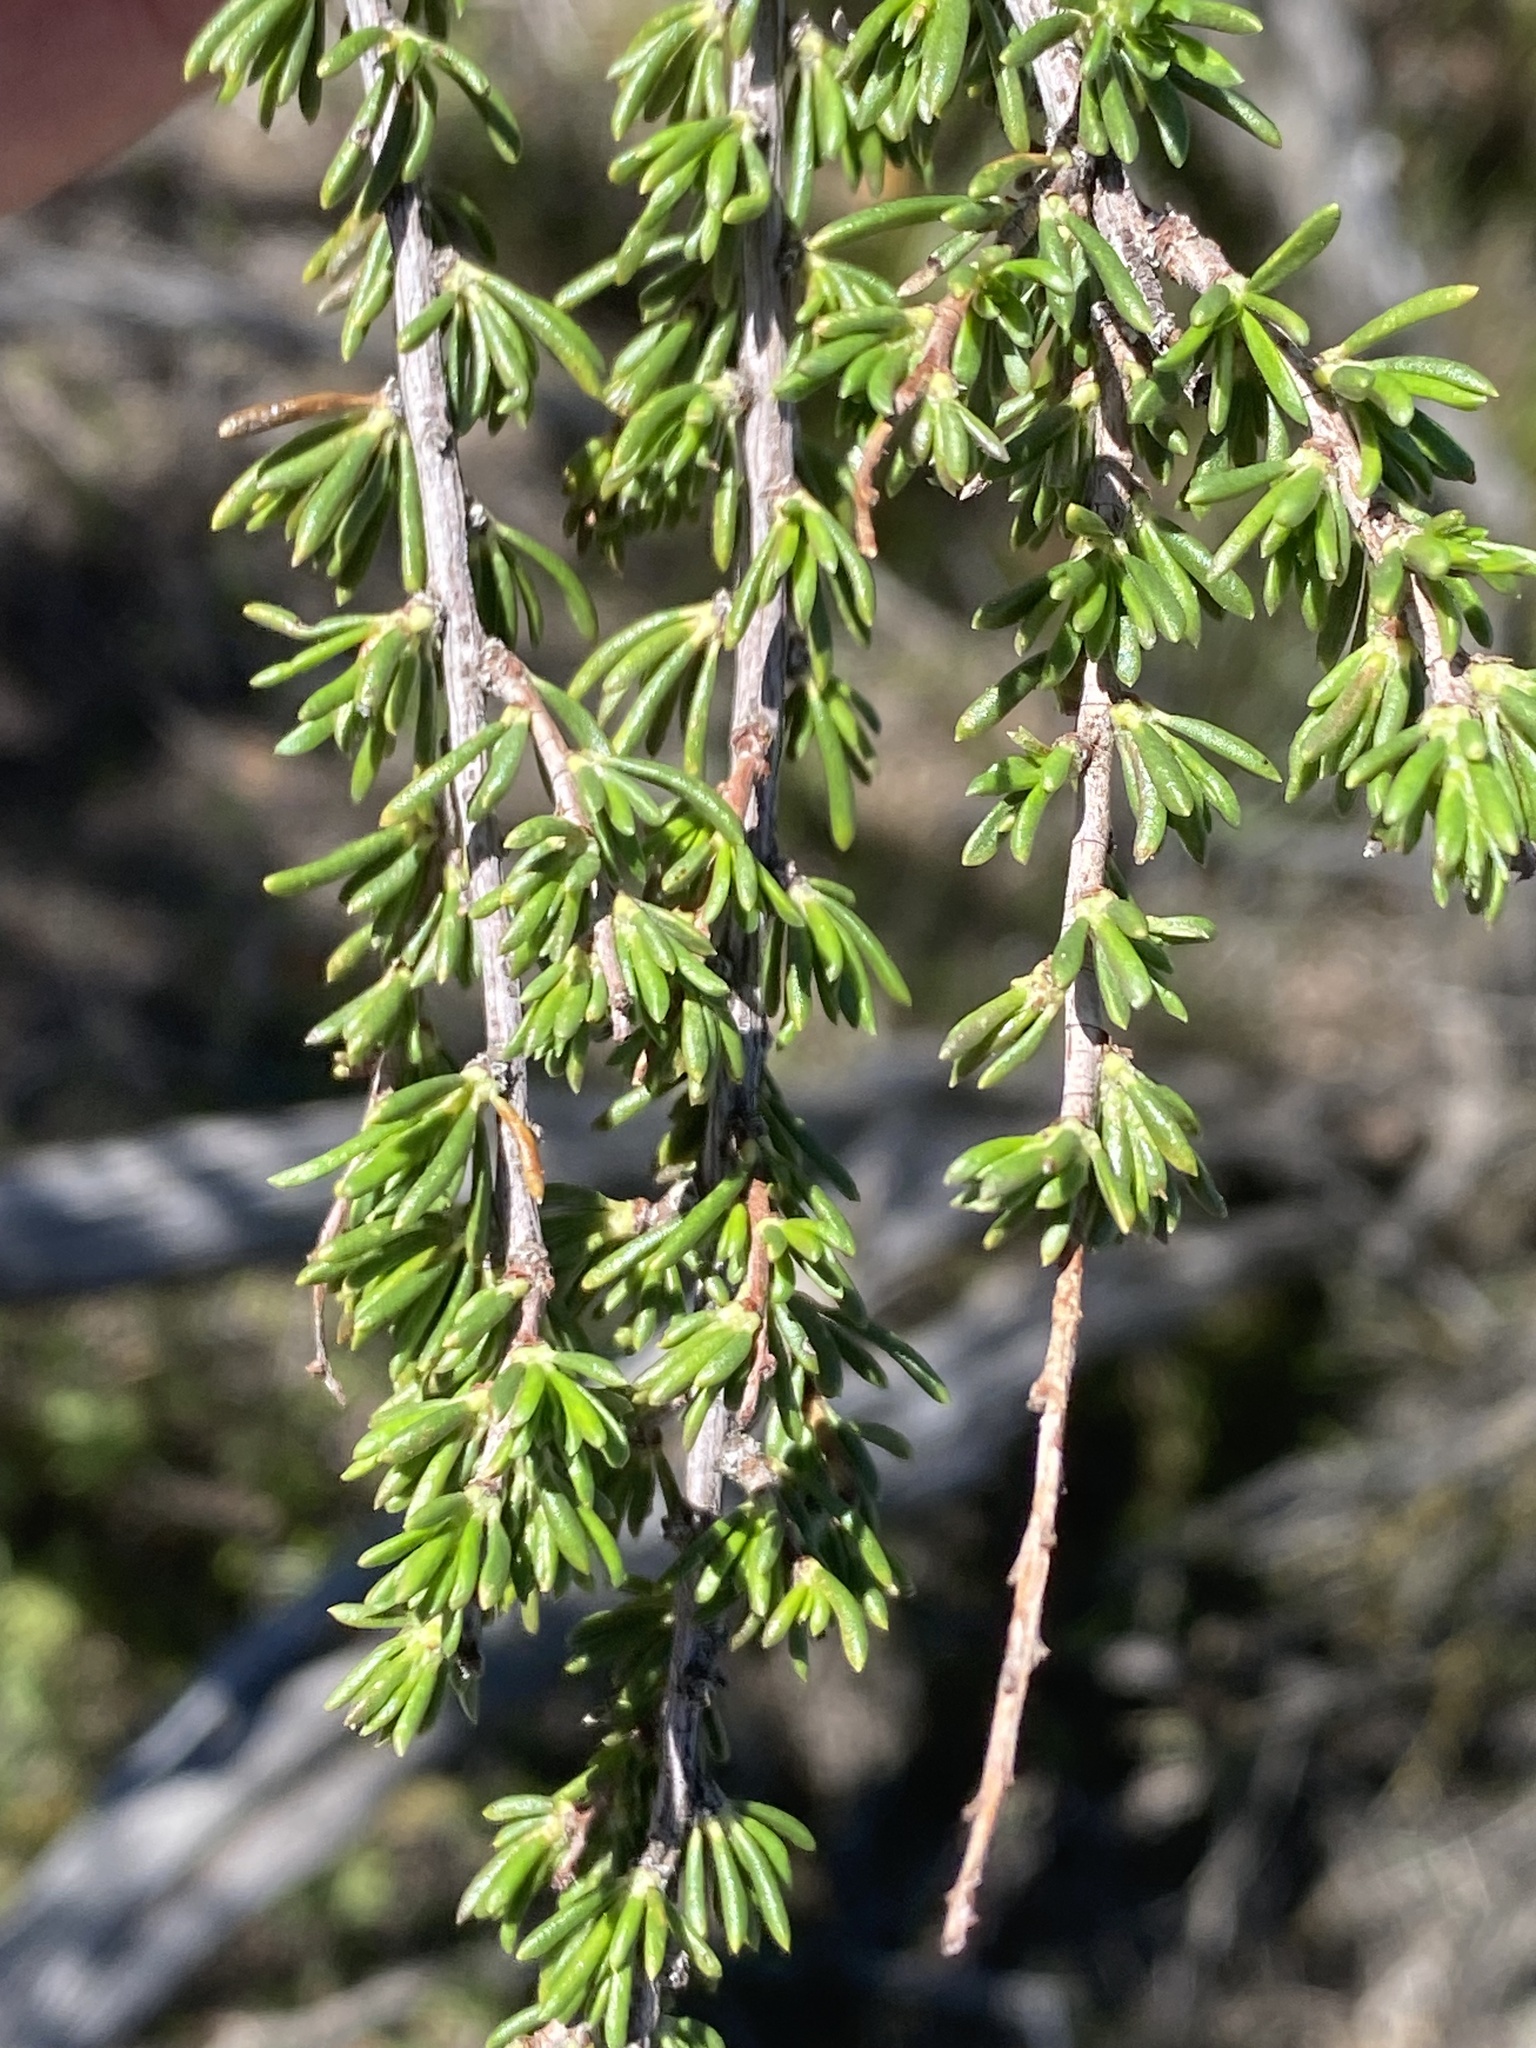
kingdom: Plantae
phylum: Tracheophyta
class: Magnoliopsida
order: Rosales
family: Rosaceae
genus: Adenostoma
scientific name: Adenostoma fasciculatum
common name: Chamise
